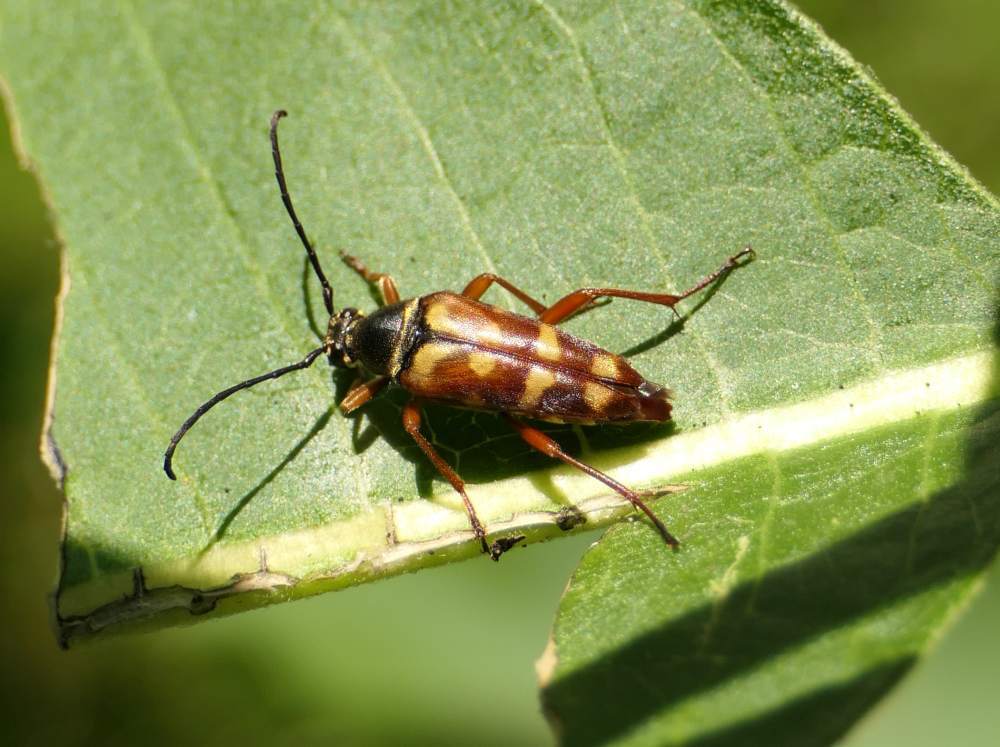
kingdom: Animalia
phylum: Arthropoda
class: Insecta
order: Coleoptera
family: Cerambycidae
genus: Typocerus
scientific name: Typocerus velutinus
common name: Banded longhorn beetle
